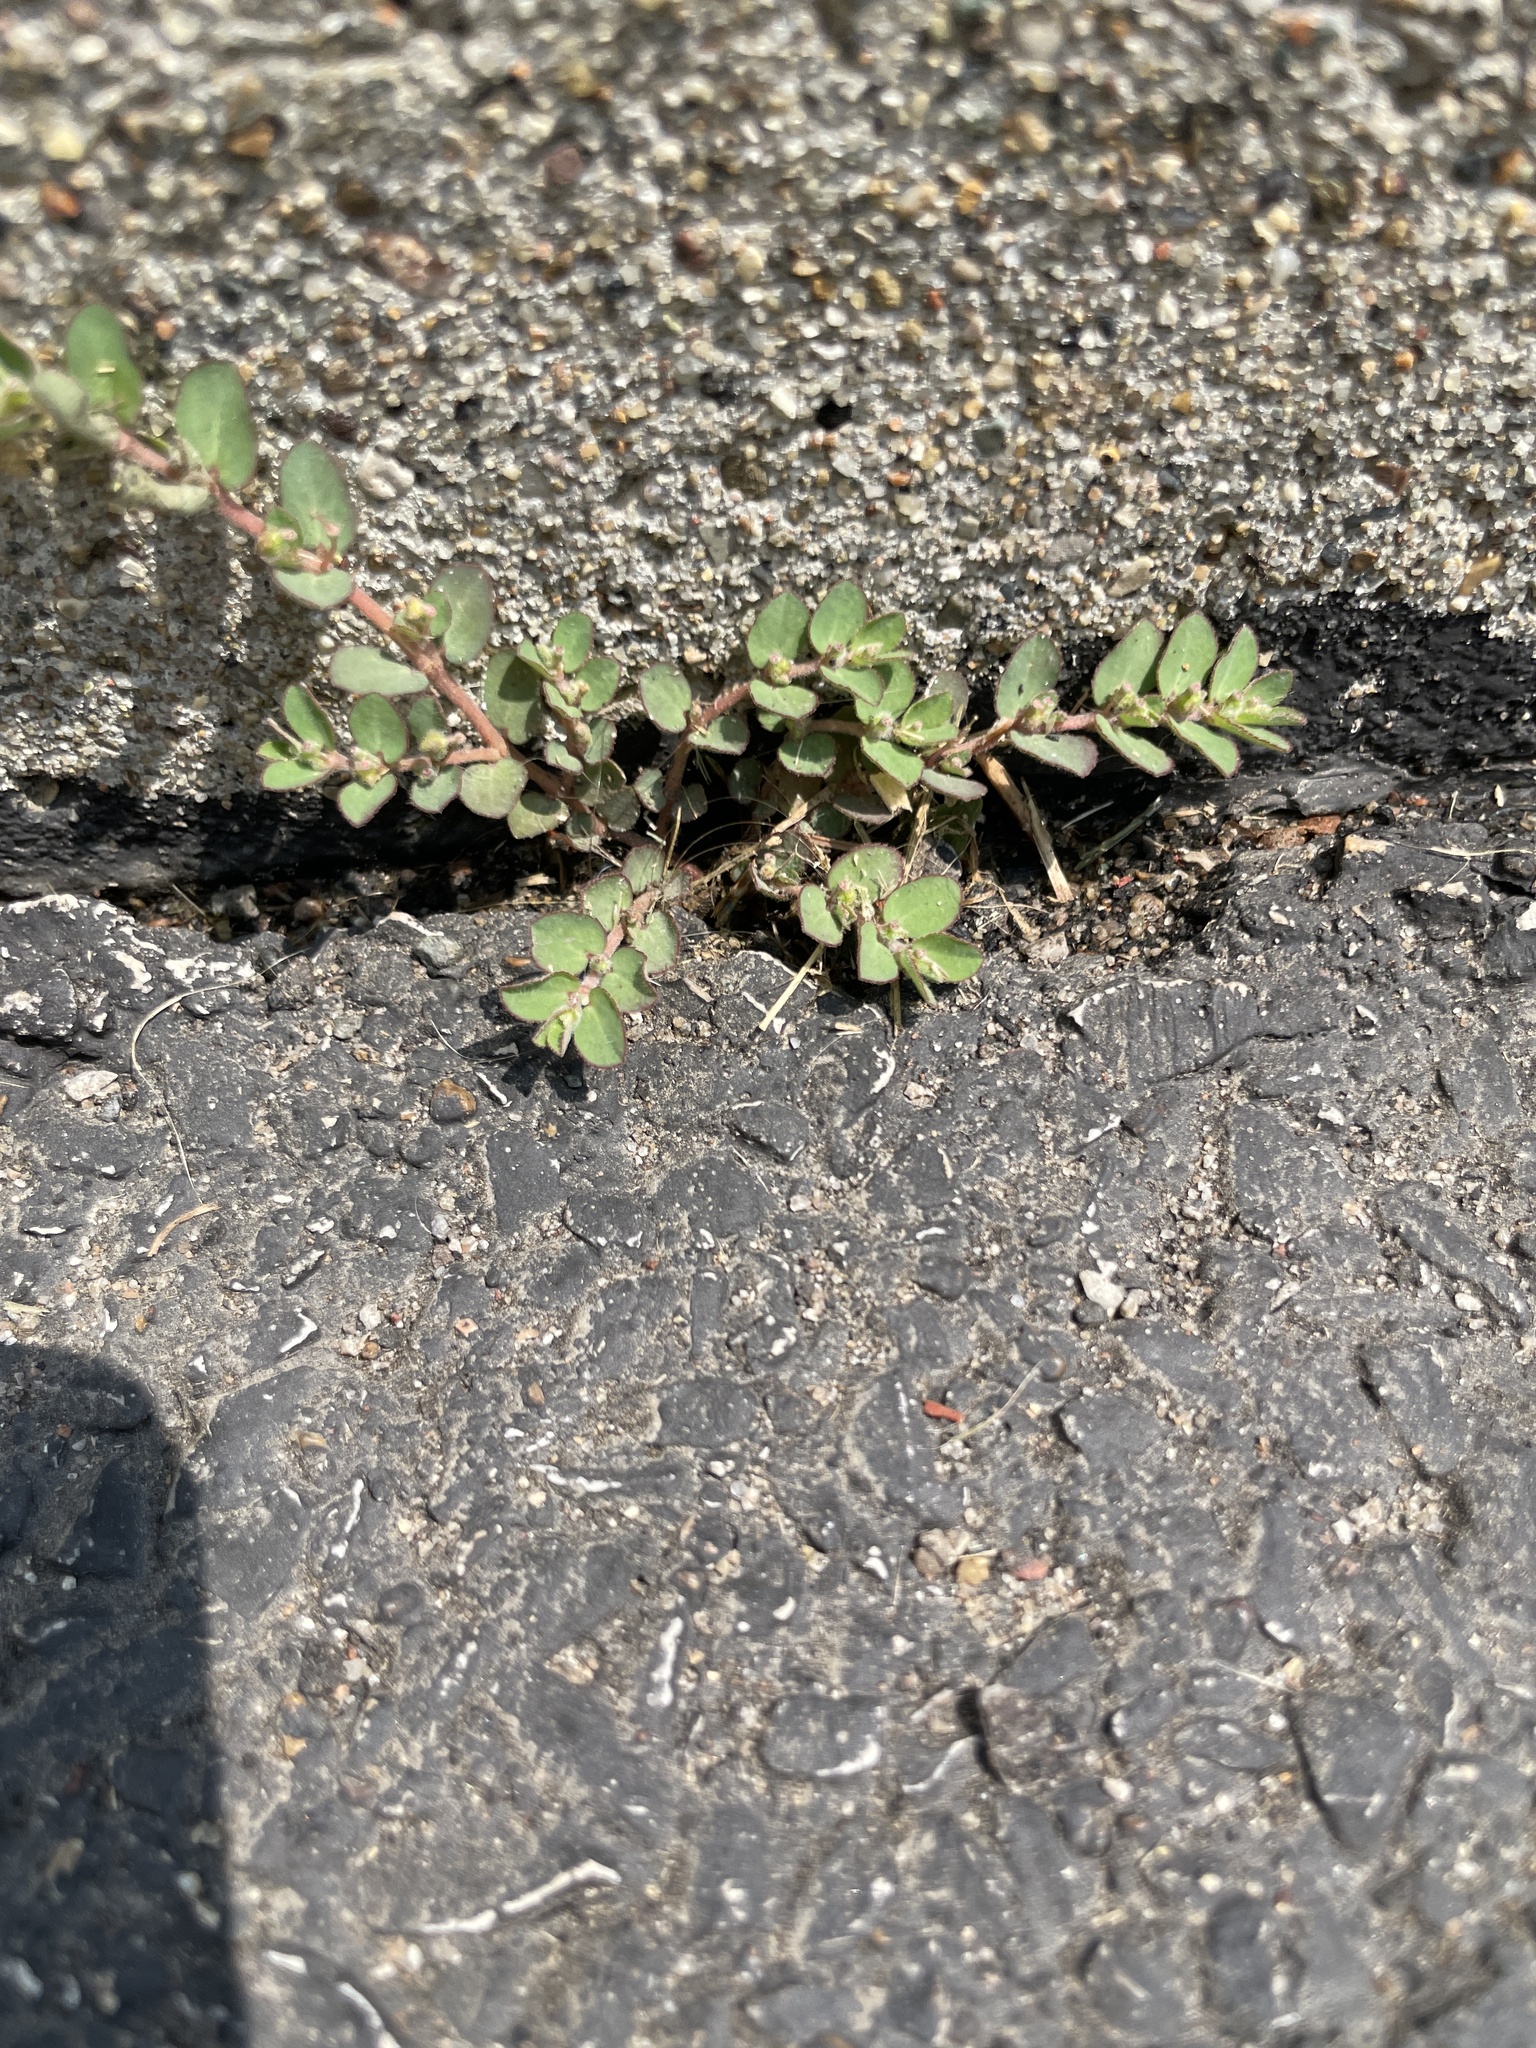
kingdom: Plantae
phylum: Tracheophyta
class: Magnoliopsida
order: Malpighiales
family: Euphorbiaceae
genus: Euphorbia
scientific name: Euphorbia prostrata
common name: Prostrate sandmat
